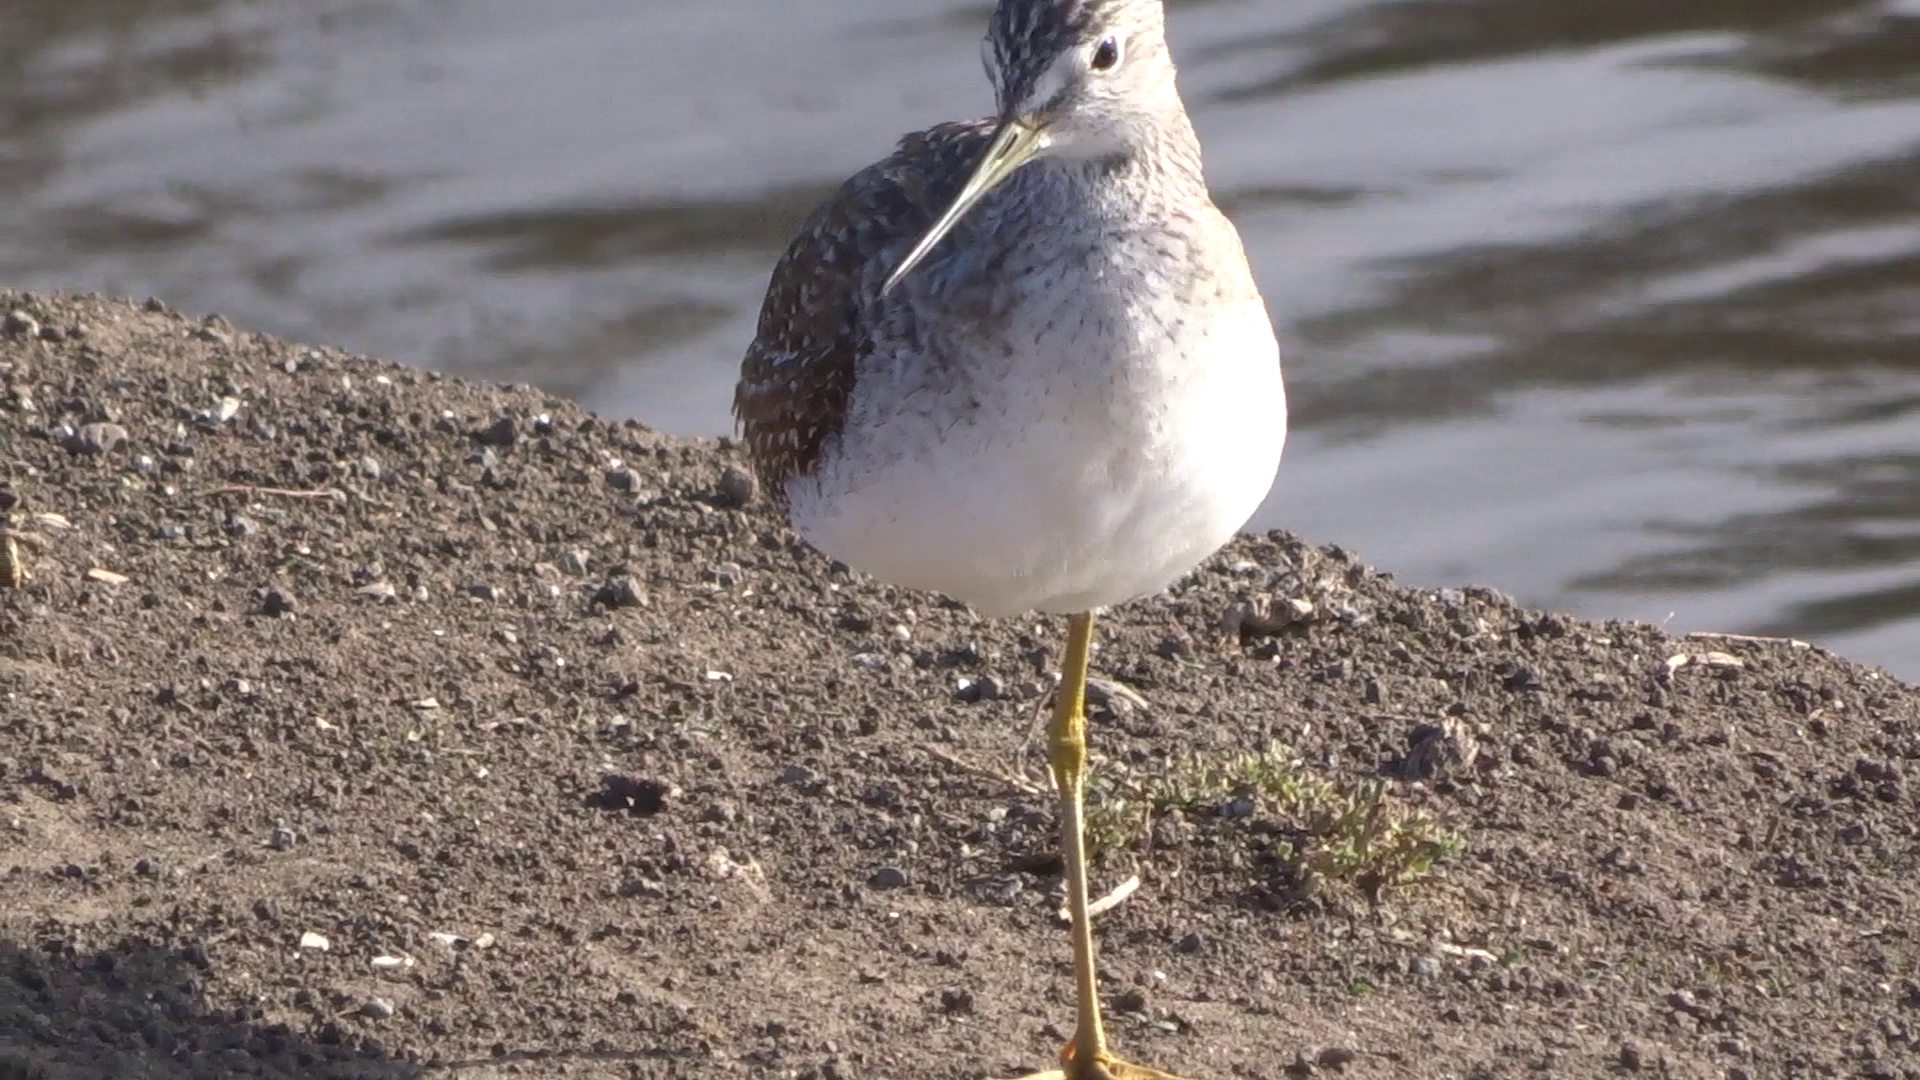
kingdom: Animalia
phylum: Chordata
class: Aves
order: Charadriiformes
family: Scolopacidae
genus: Tringa
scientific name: Tringa melanoleuca
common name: Greater yellowlegs
